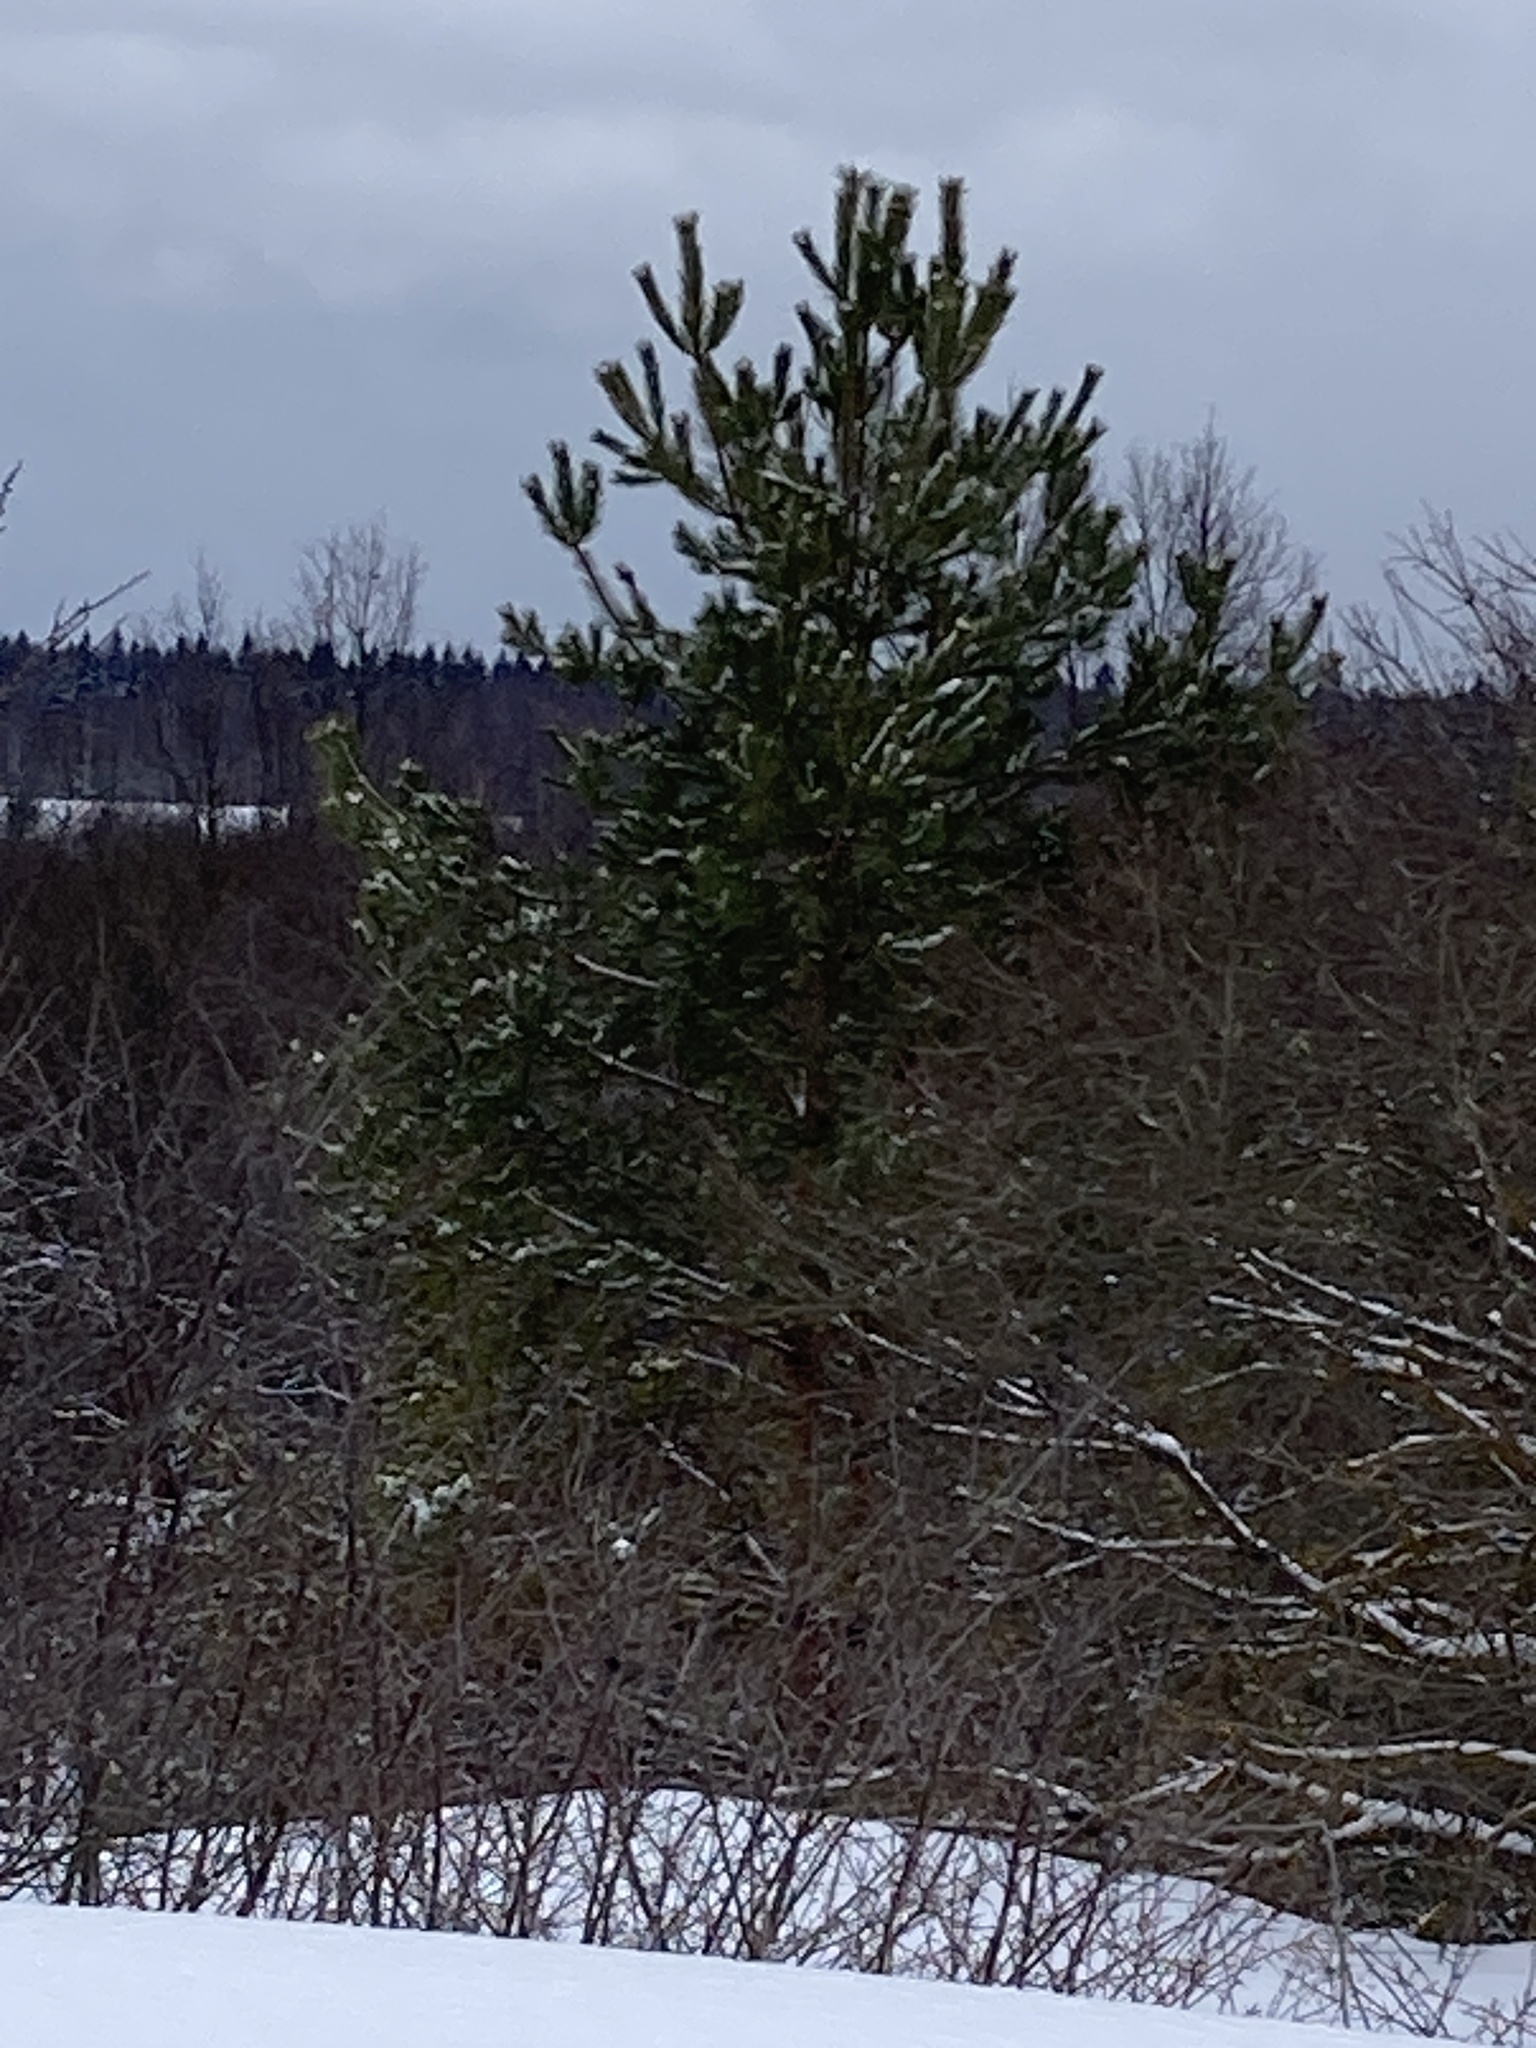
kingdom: Plantae
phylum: Tracheophyta
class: Pinopsida
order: Pinales
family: Pinaceae
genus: Pinus
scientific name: Pinus sylvestris
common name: Scots pine
